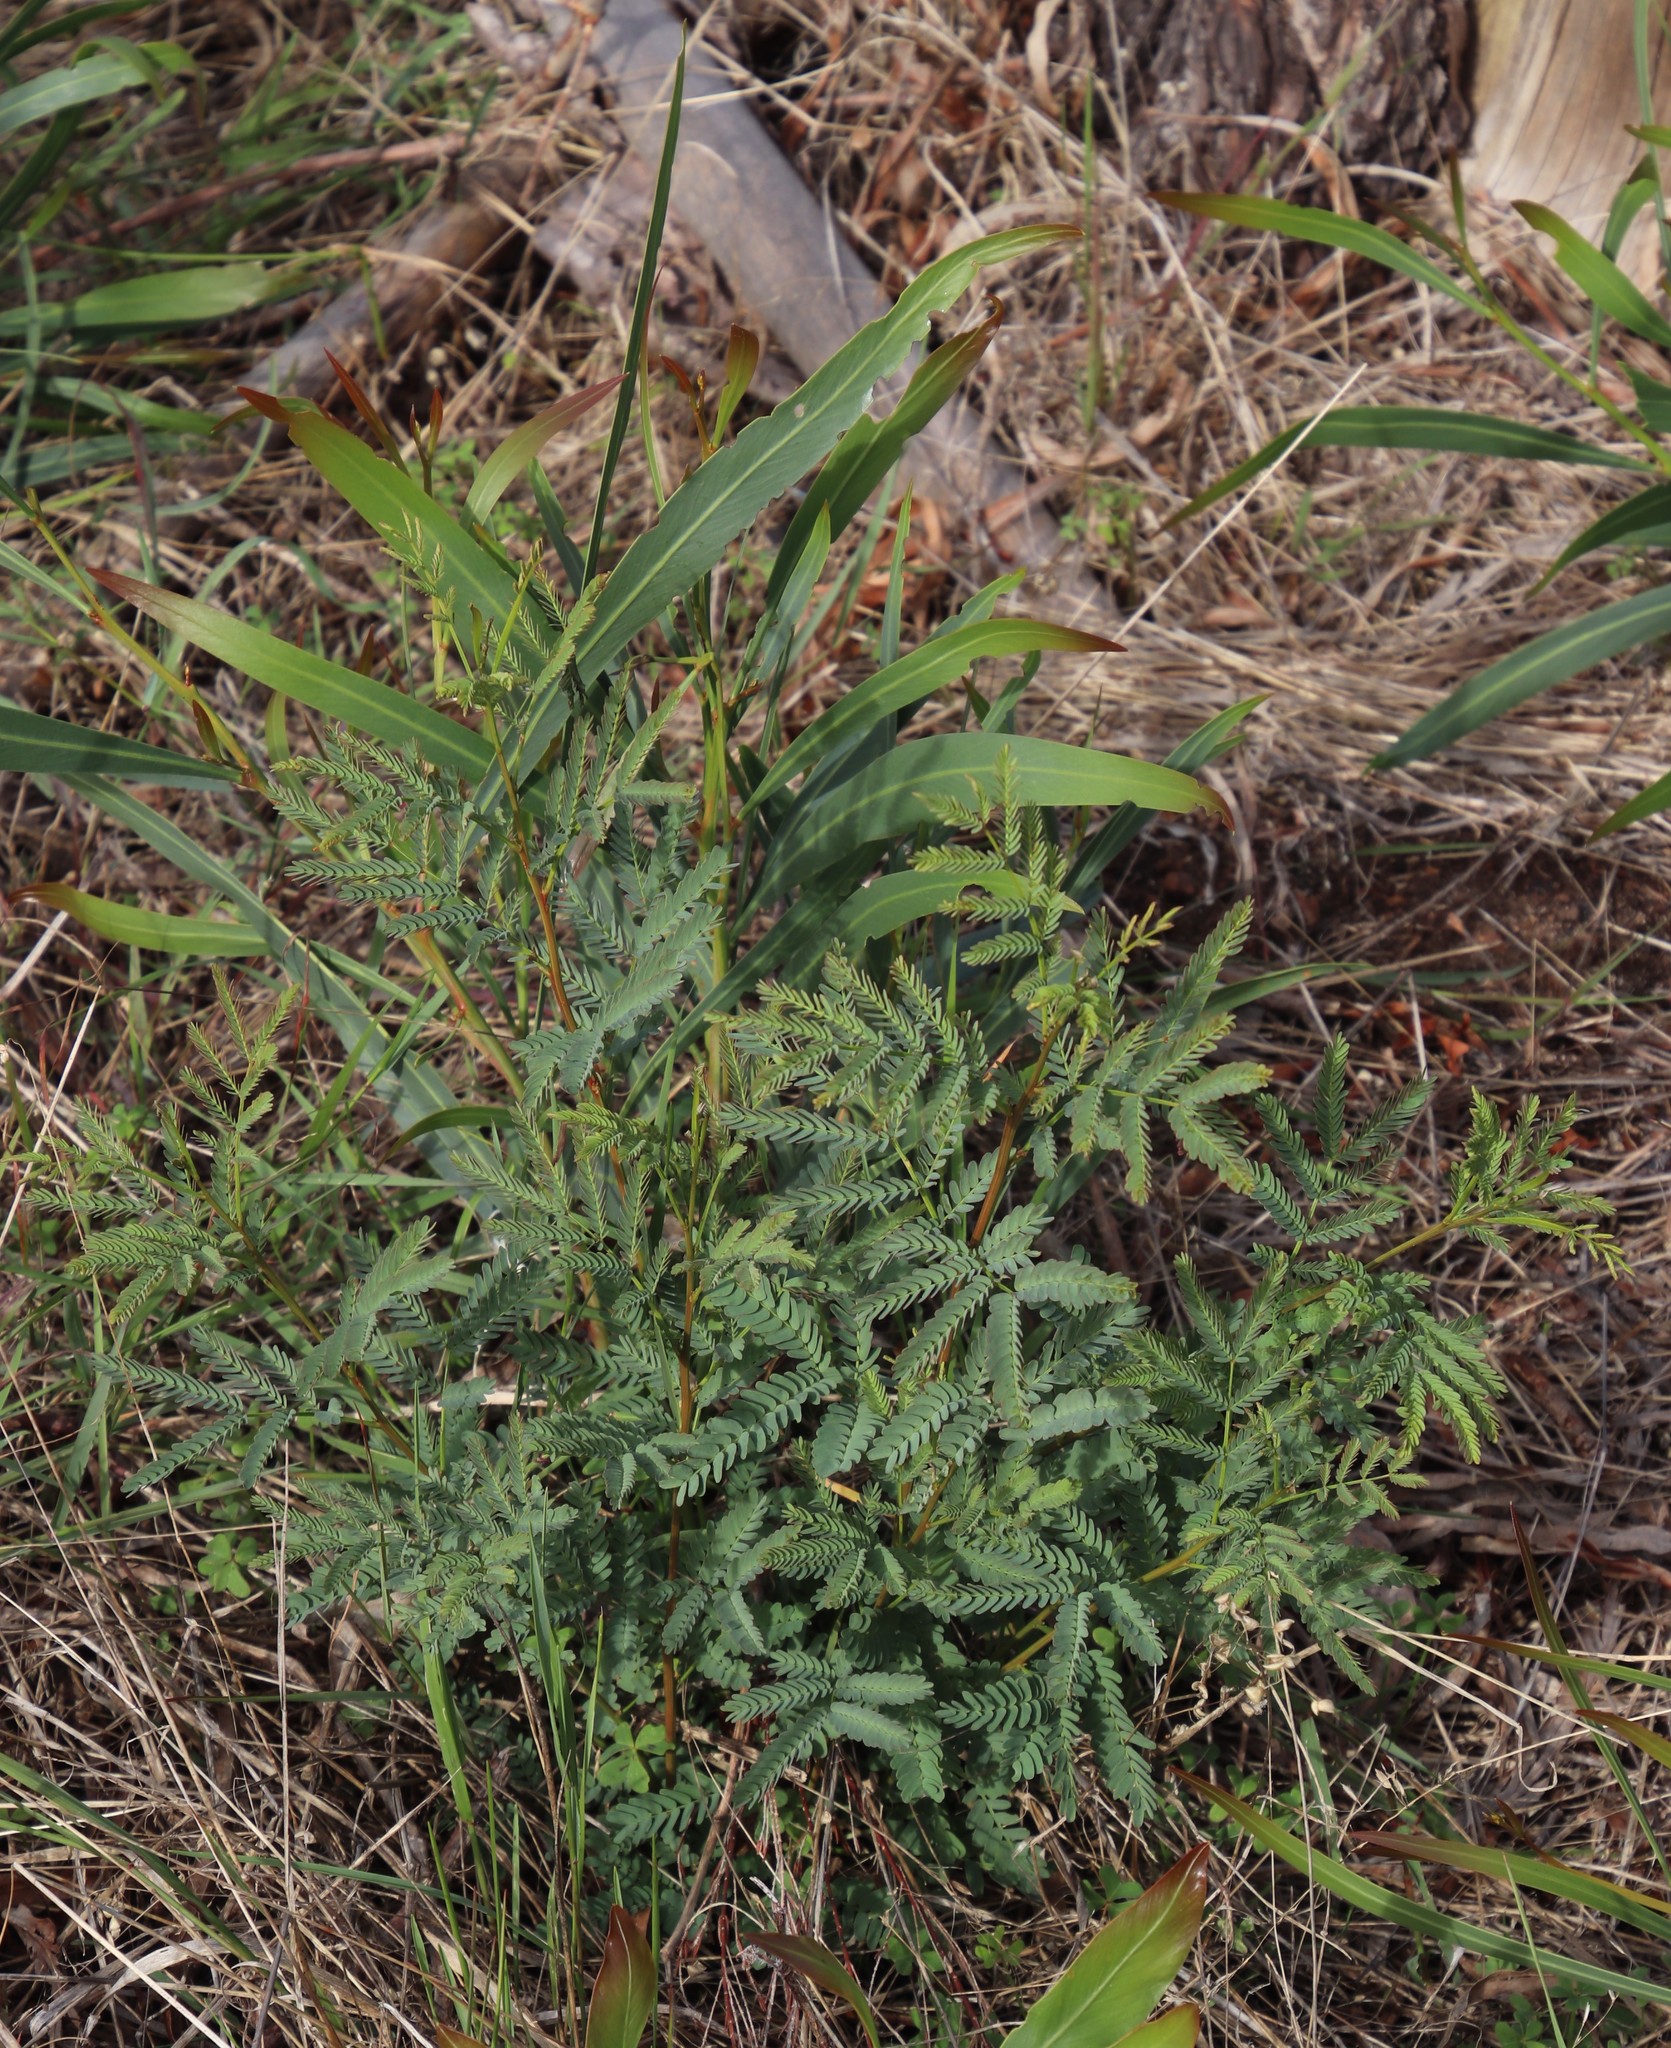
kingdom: Plantae
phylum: Tracheophyta
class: Magnoliopsida
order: Fabales
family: Fabaceae
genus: Acacia
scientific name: Acacia implexa
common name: Black wattle
